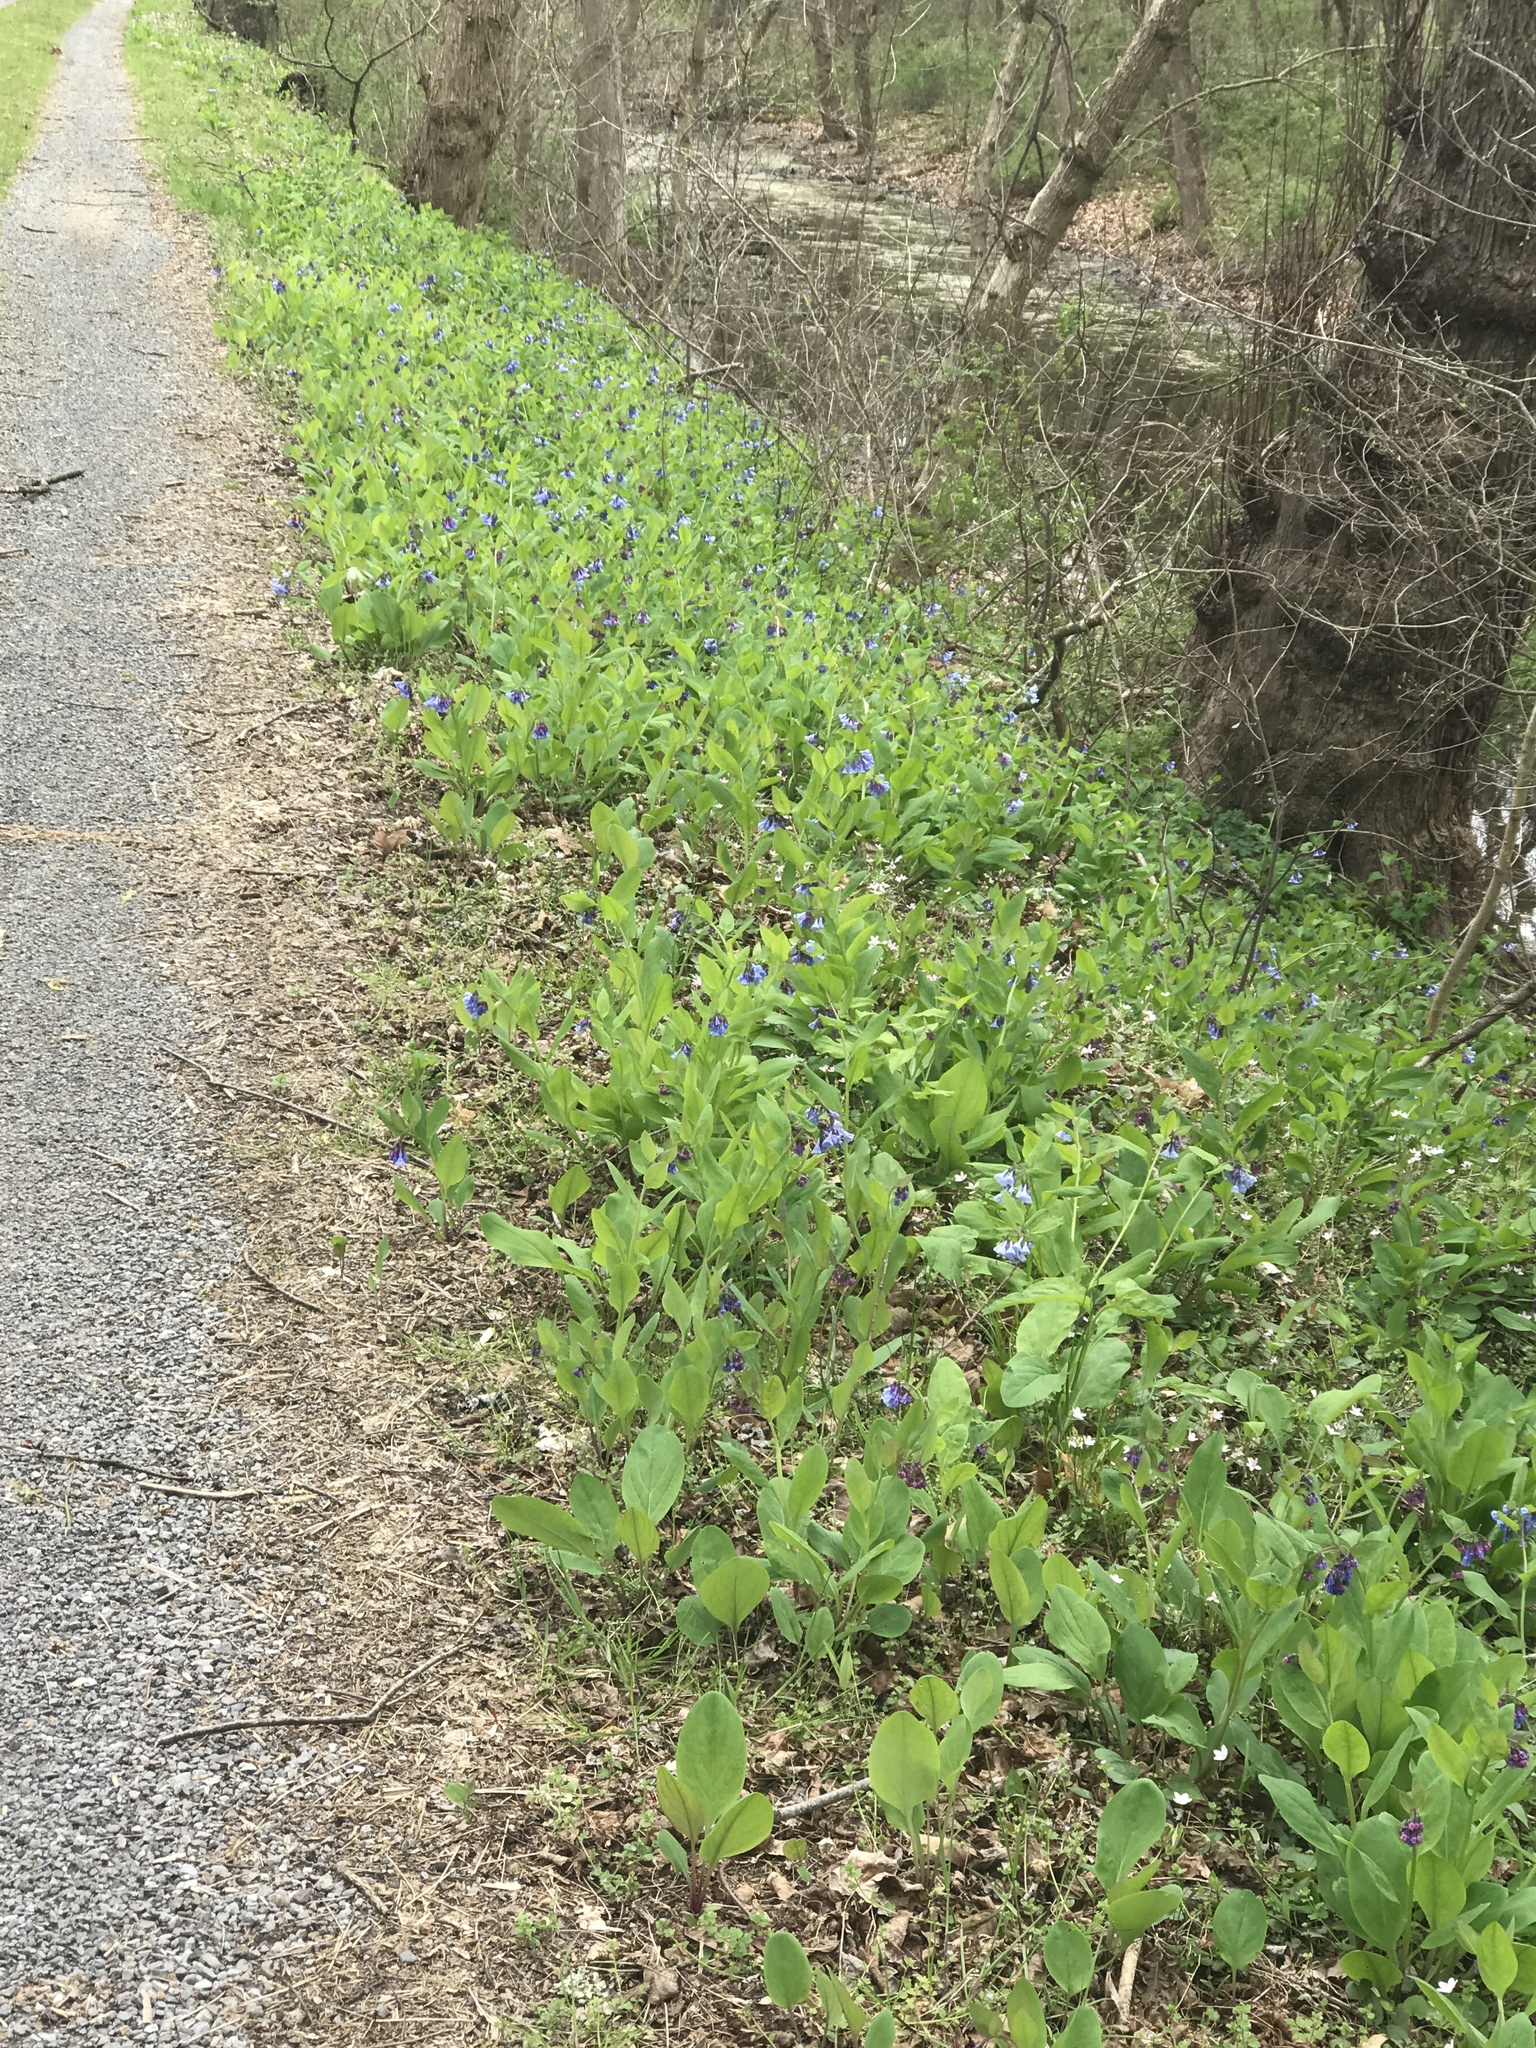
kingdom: Plantae
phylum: Tracheophyta
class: Magnoliopsida
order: Boraginales
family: Boraginaceae
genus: Mertensia
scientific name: Mertensia virginica
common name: Virginia bluebells
